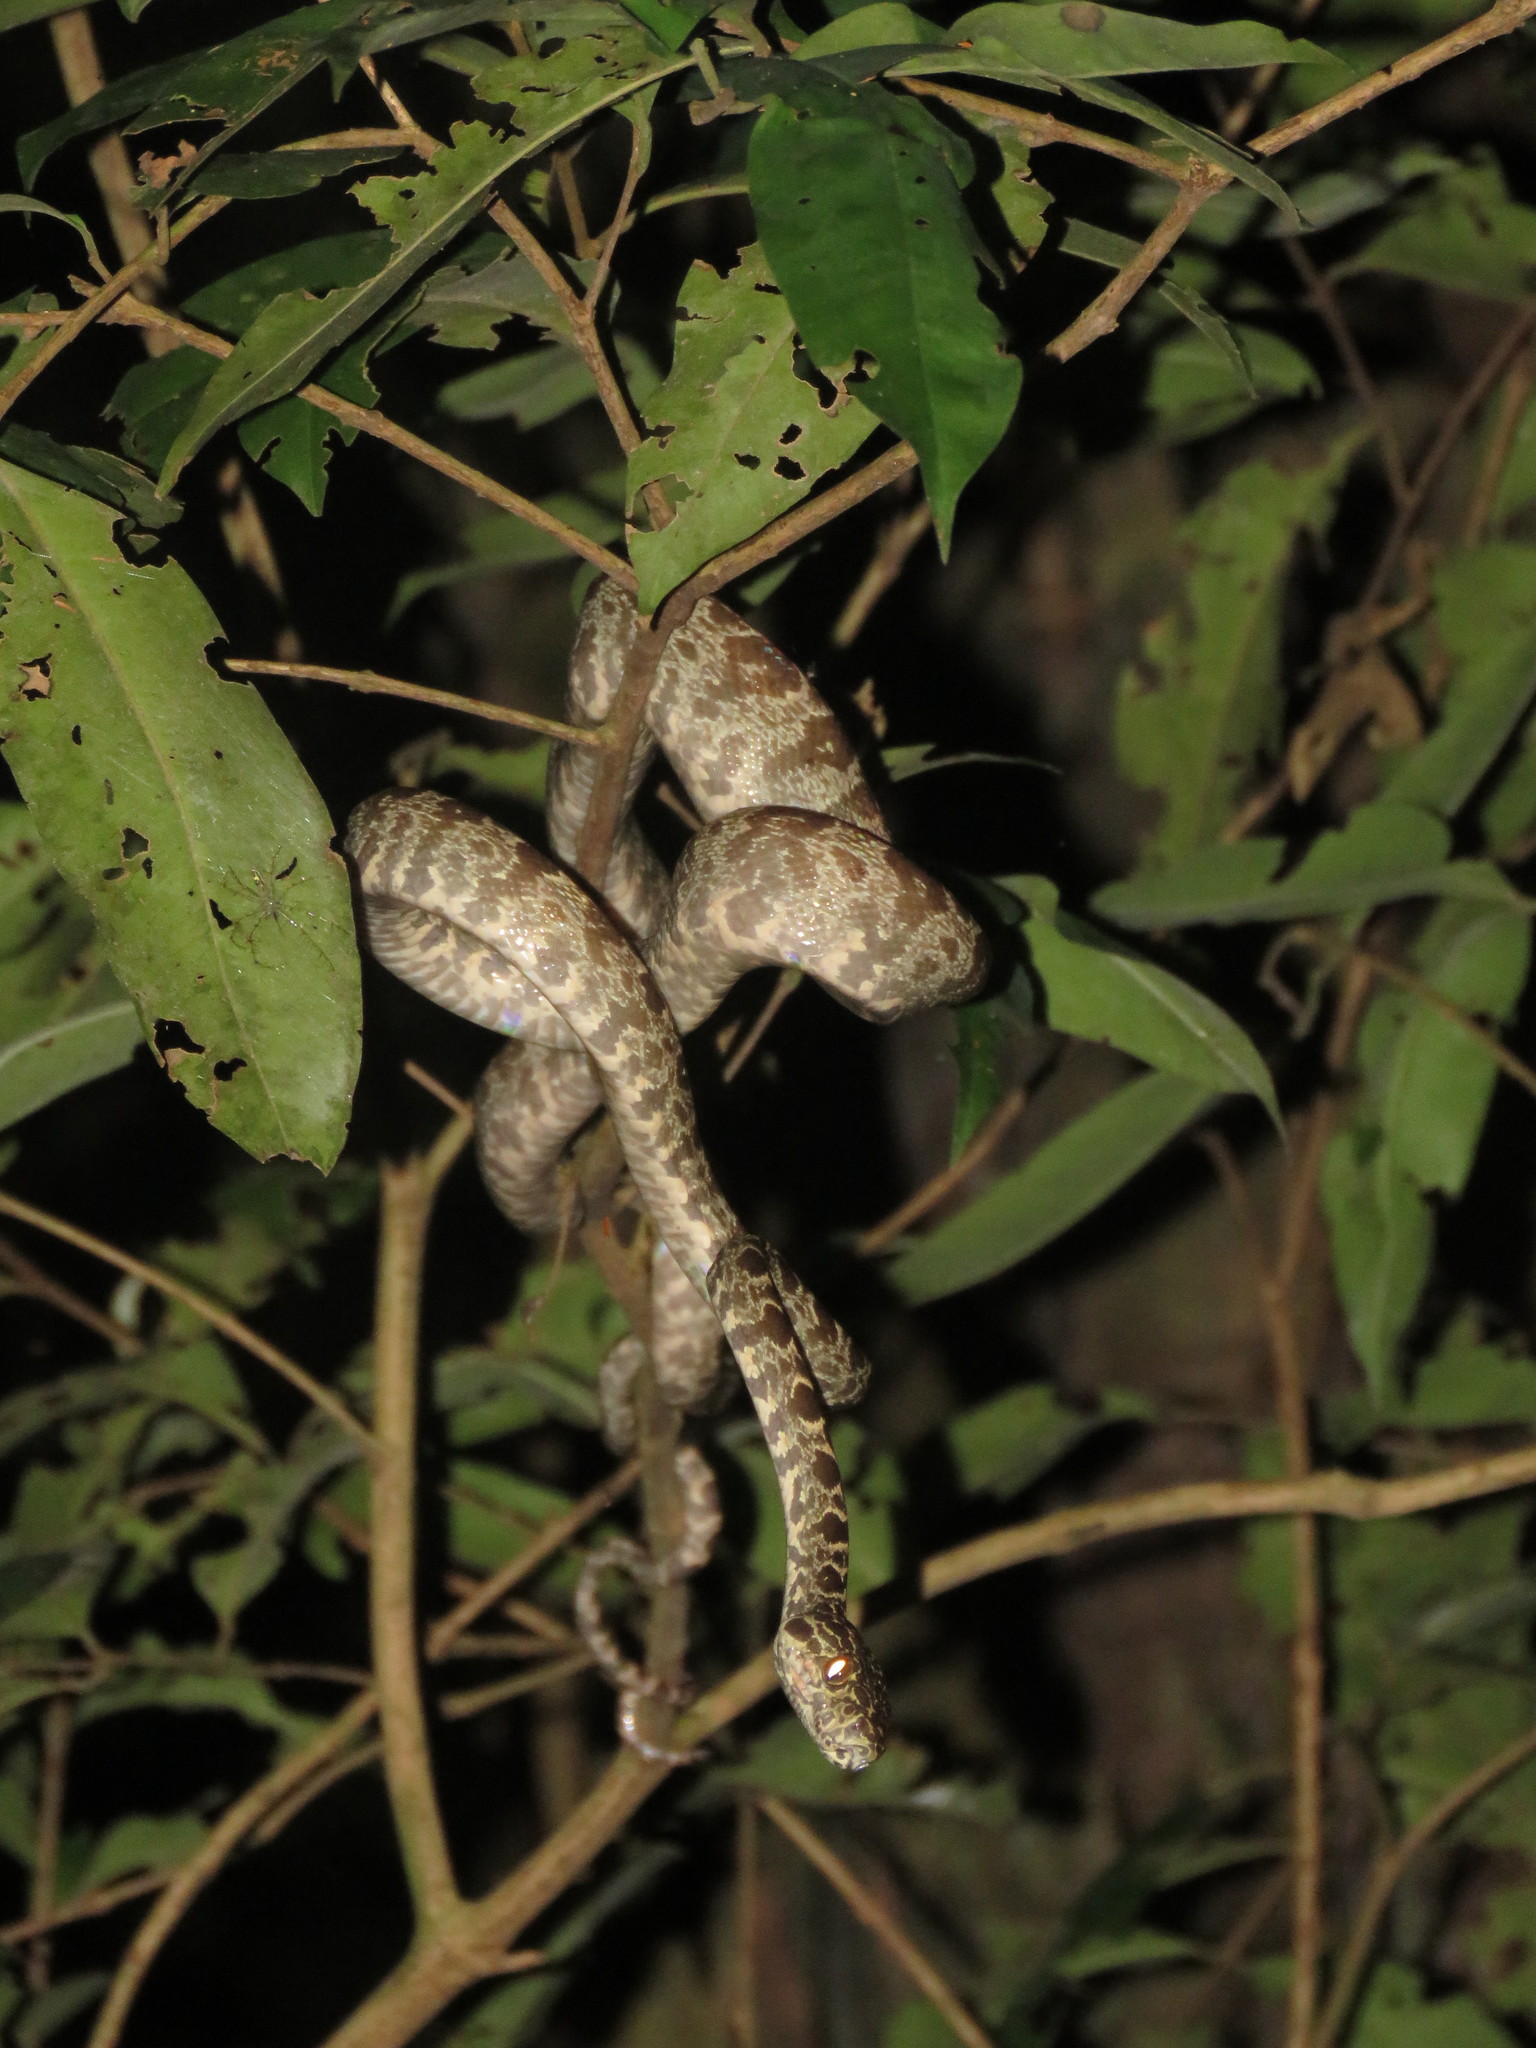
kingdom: Animalia
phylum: Chordata
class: Squamata
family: Boidae
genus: Corallus
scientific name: Corallus hortulana
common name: Garden tree boa
